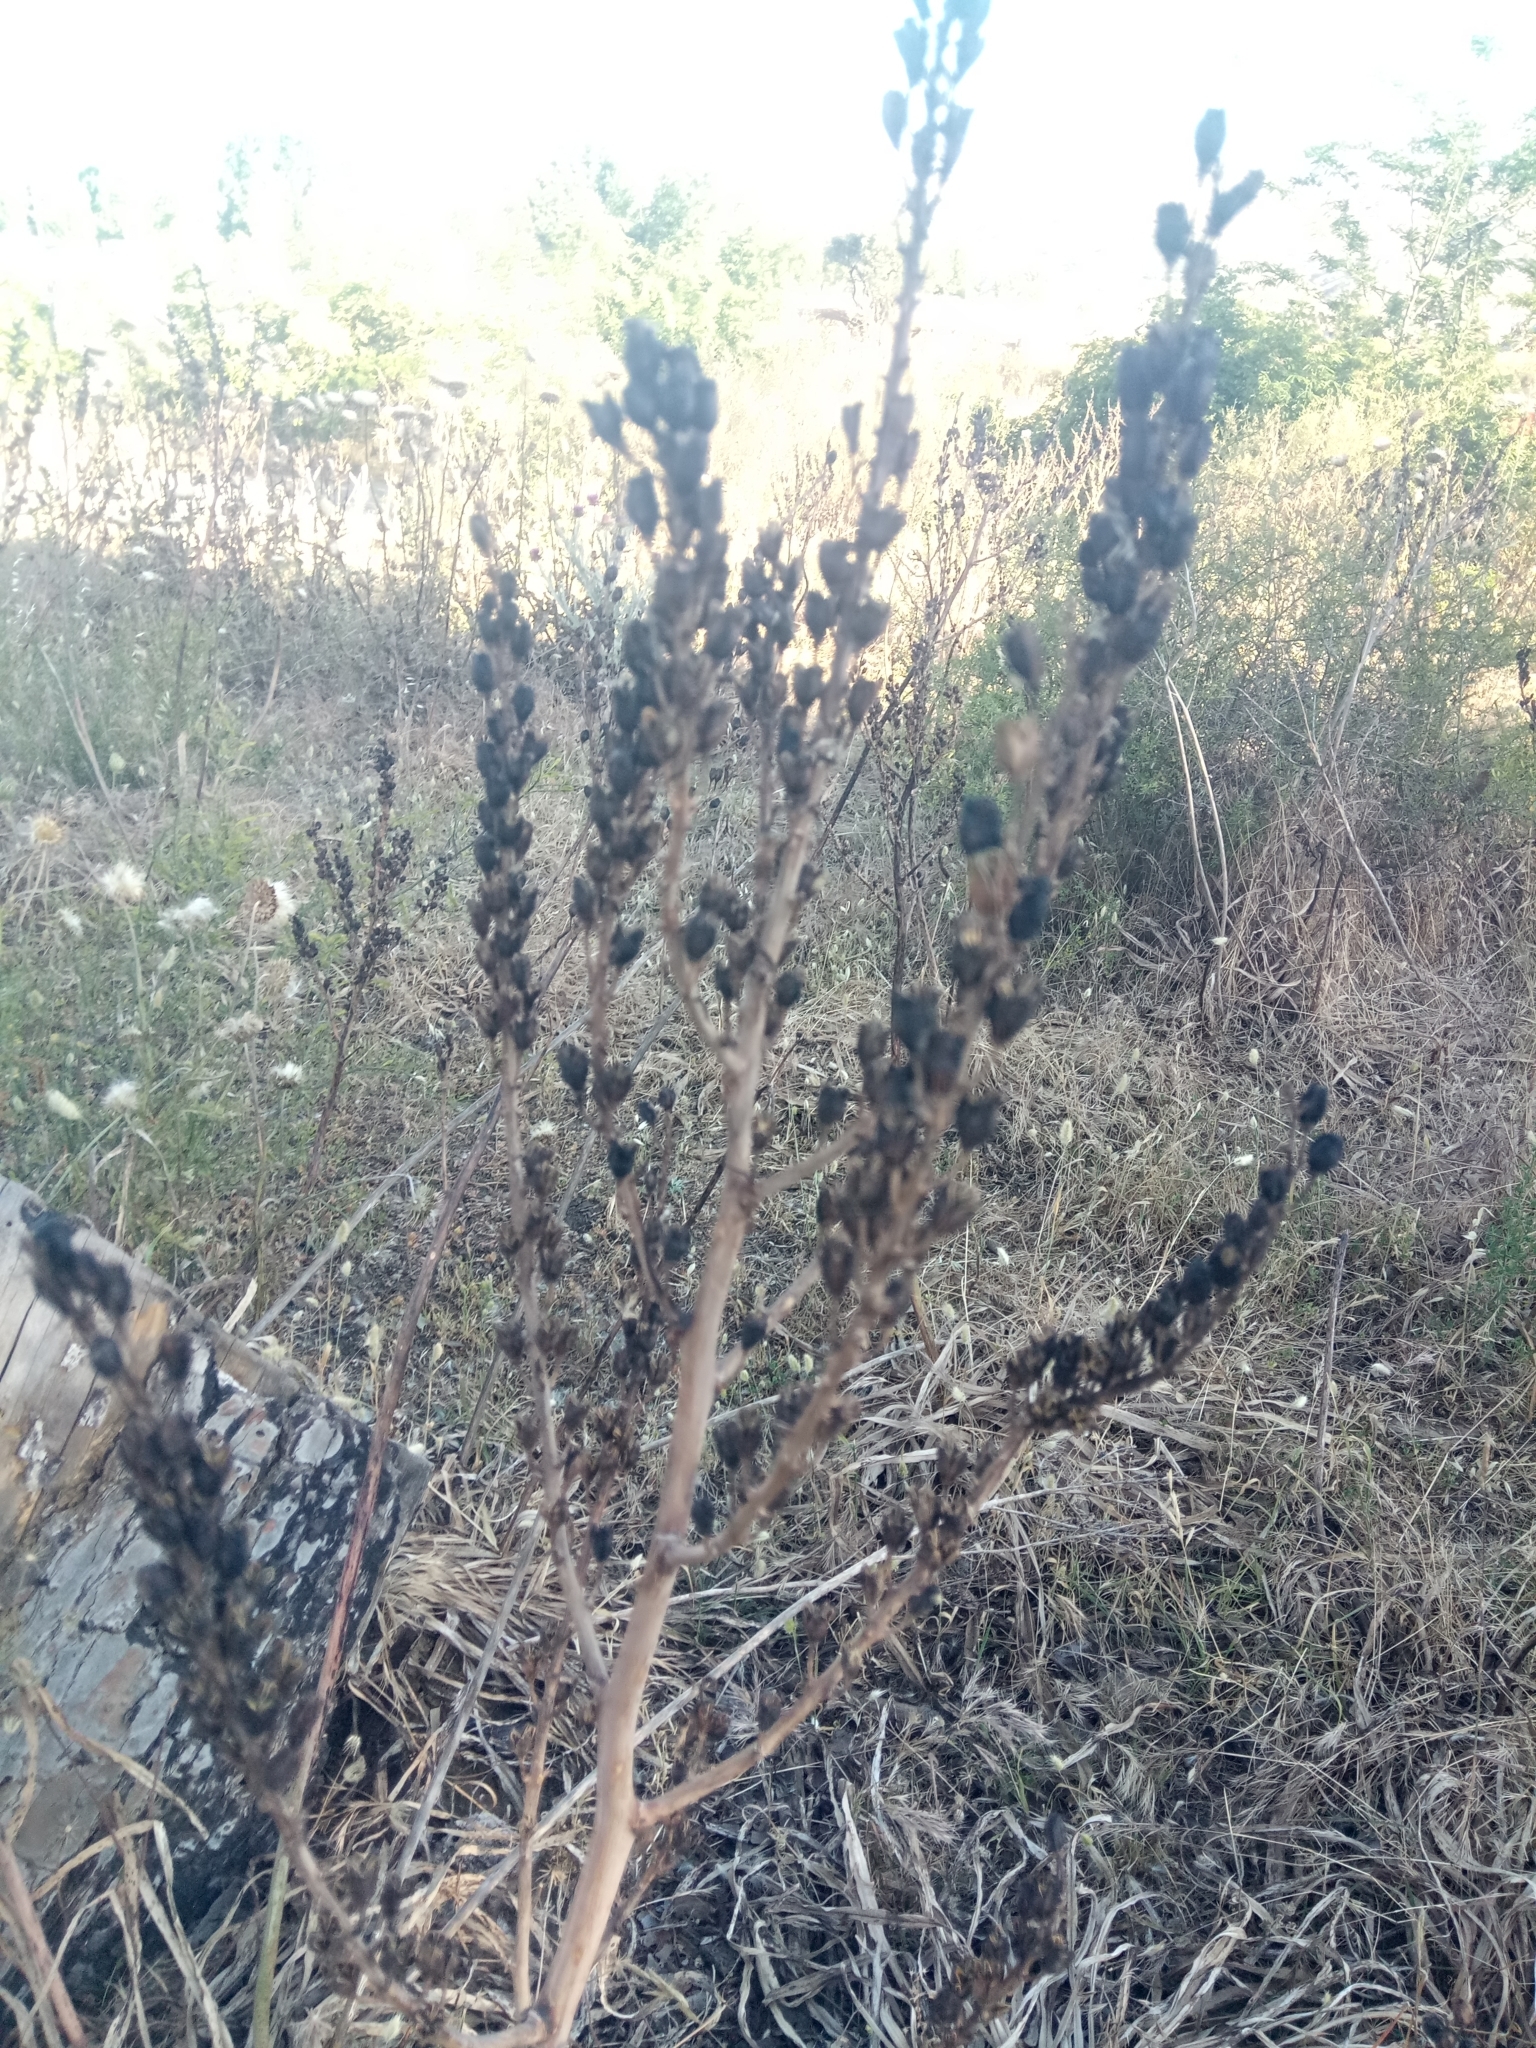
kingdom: Plantae
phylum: Tracheophyta
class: Liliopsida
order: Asparagales
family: Asphodelaceae
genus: Asphodelus
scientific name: Asphodelus ramosus
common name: Silverrod
